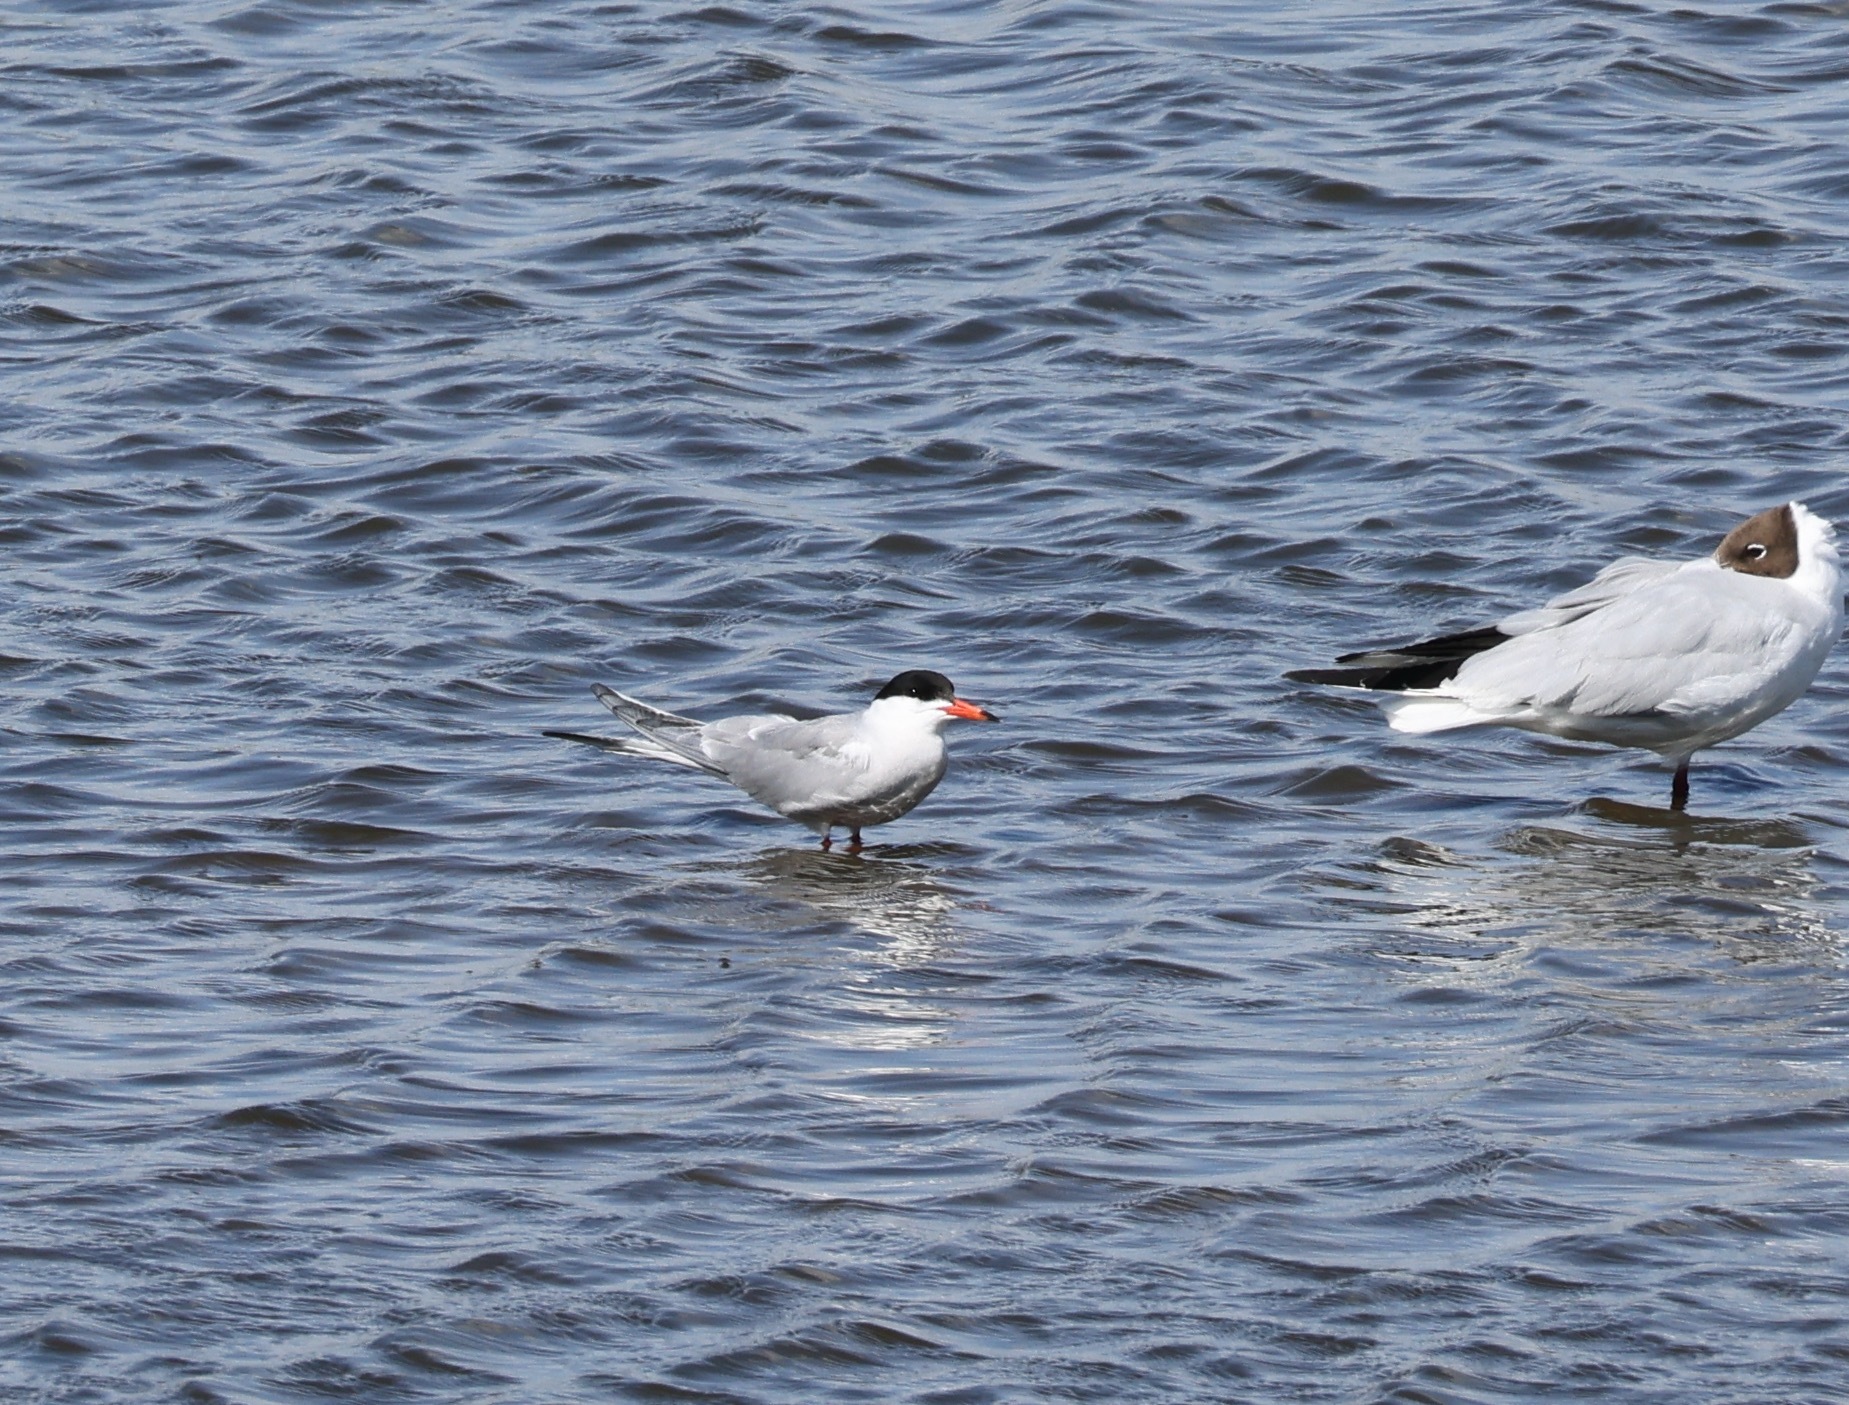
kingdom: Animalia
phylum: Chordata
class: Aves
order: Charadriiformes
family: Laridae
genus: Sterna
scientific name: Sterna hirundo
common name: Common tern
